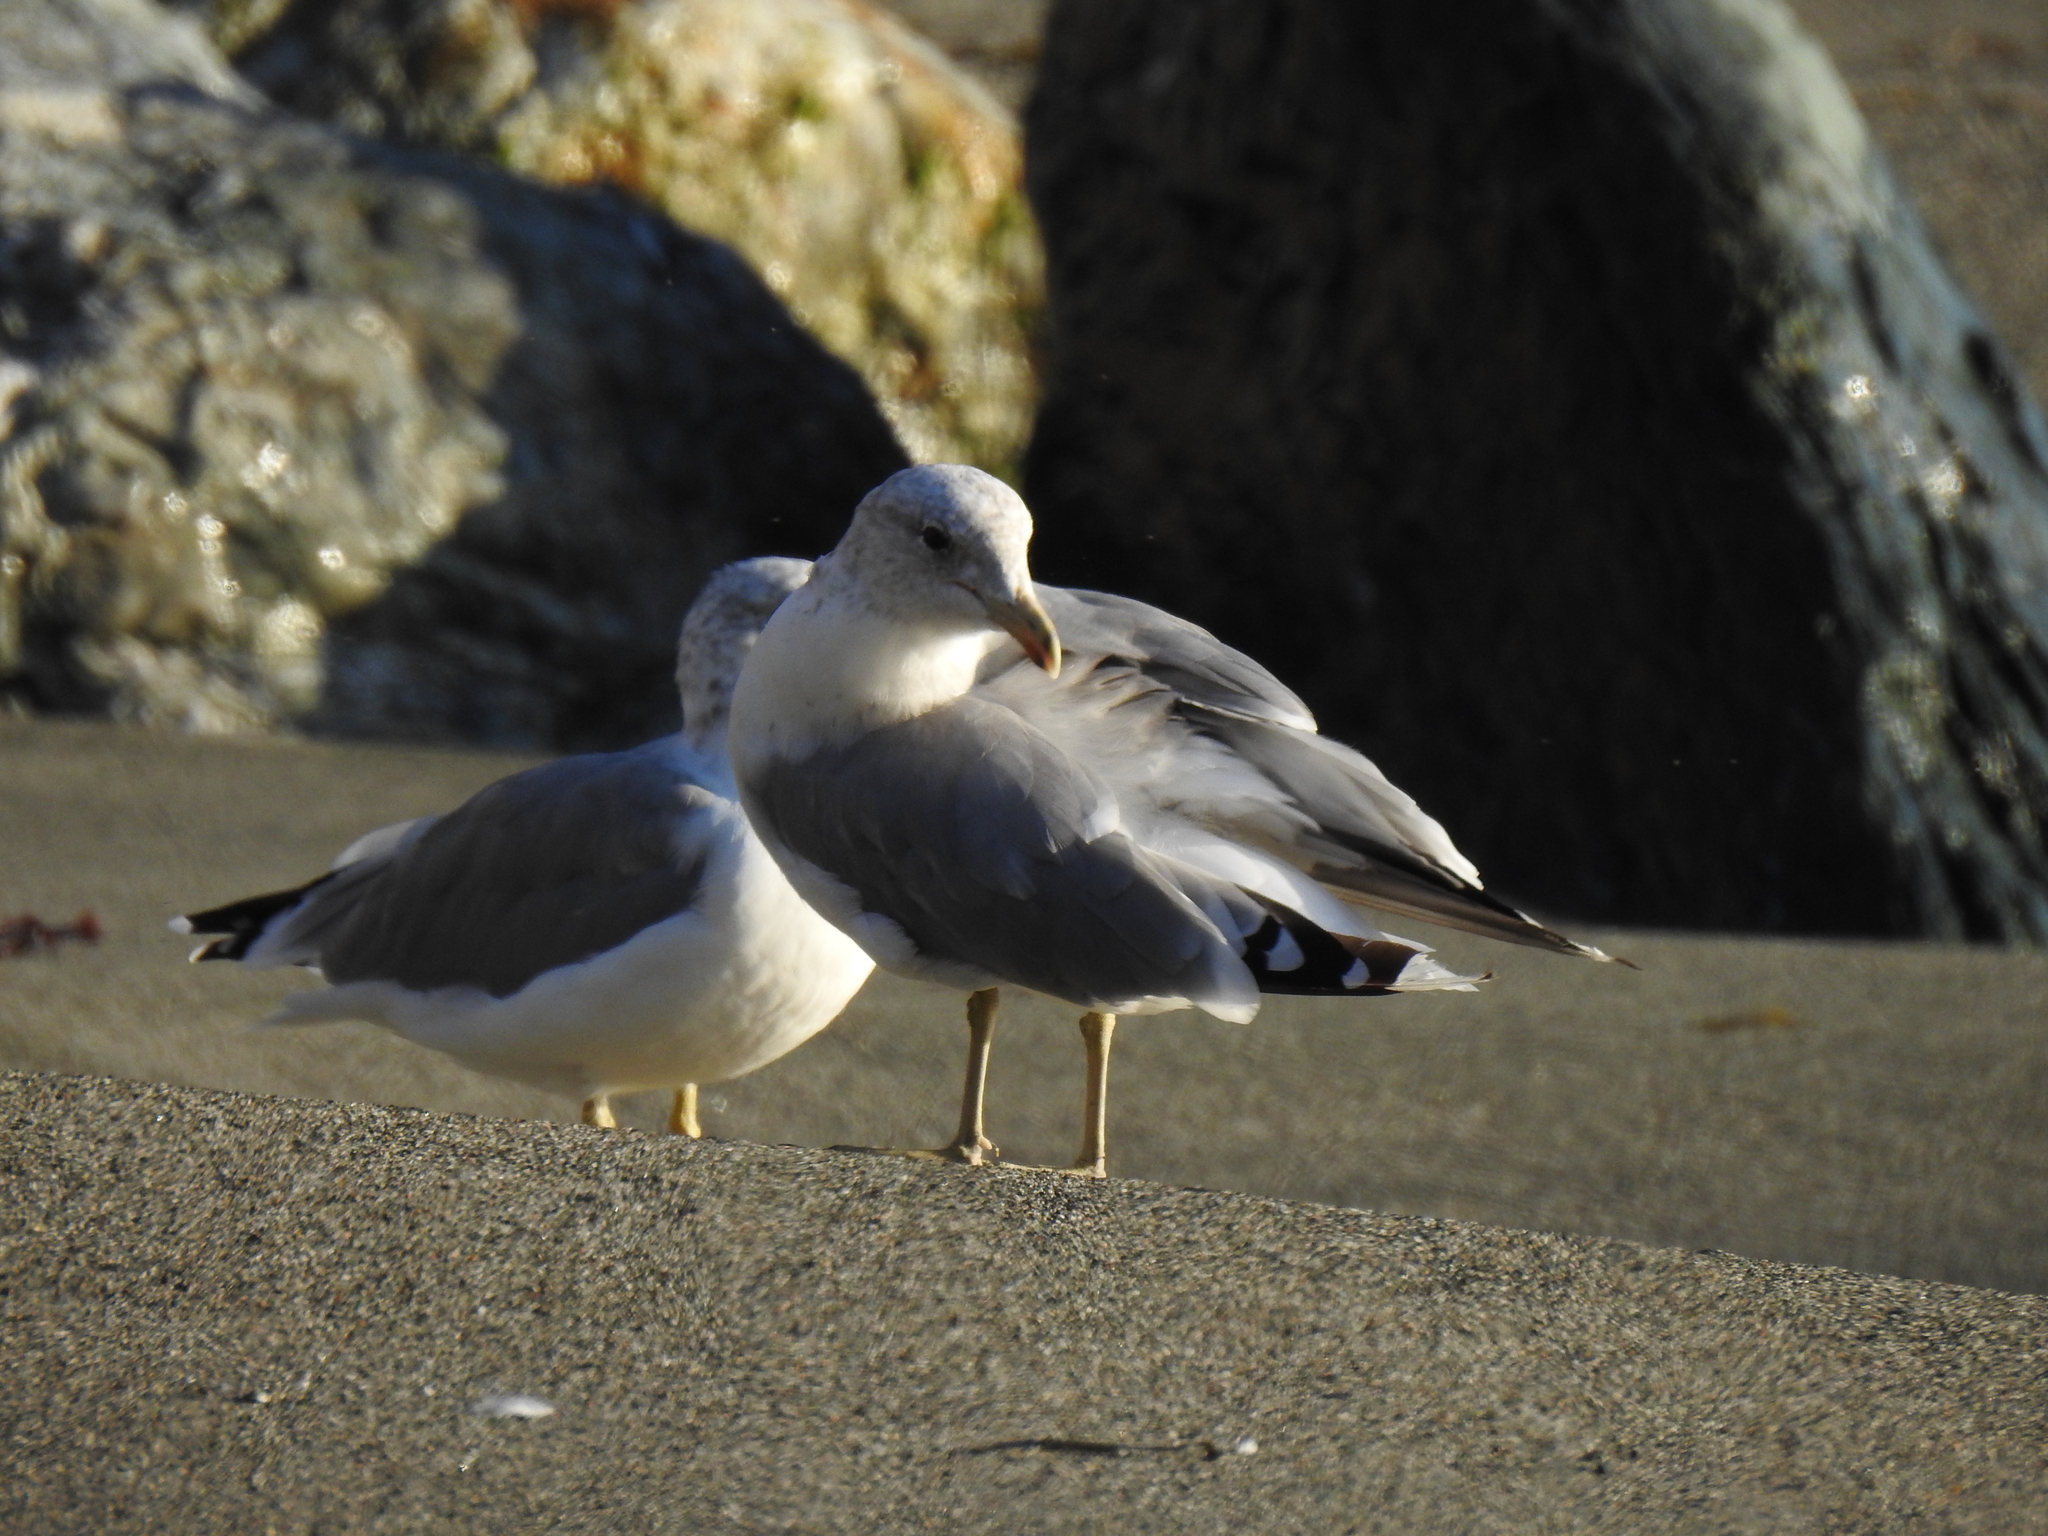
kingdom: Animalia
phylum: Chordata
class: Aves
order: Charadriiformes
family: Laridae
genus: Larus
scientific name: Larus californicus
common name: California gull
